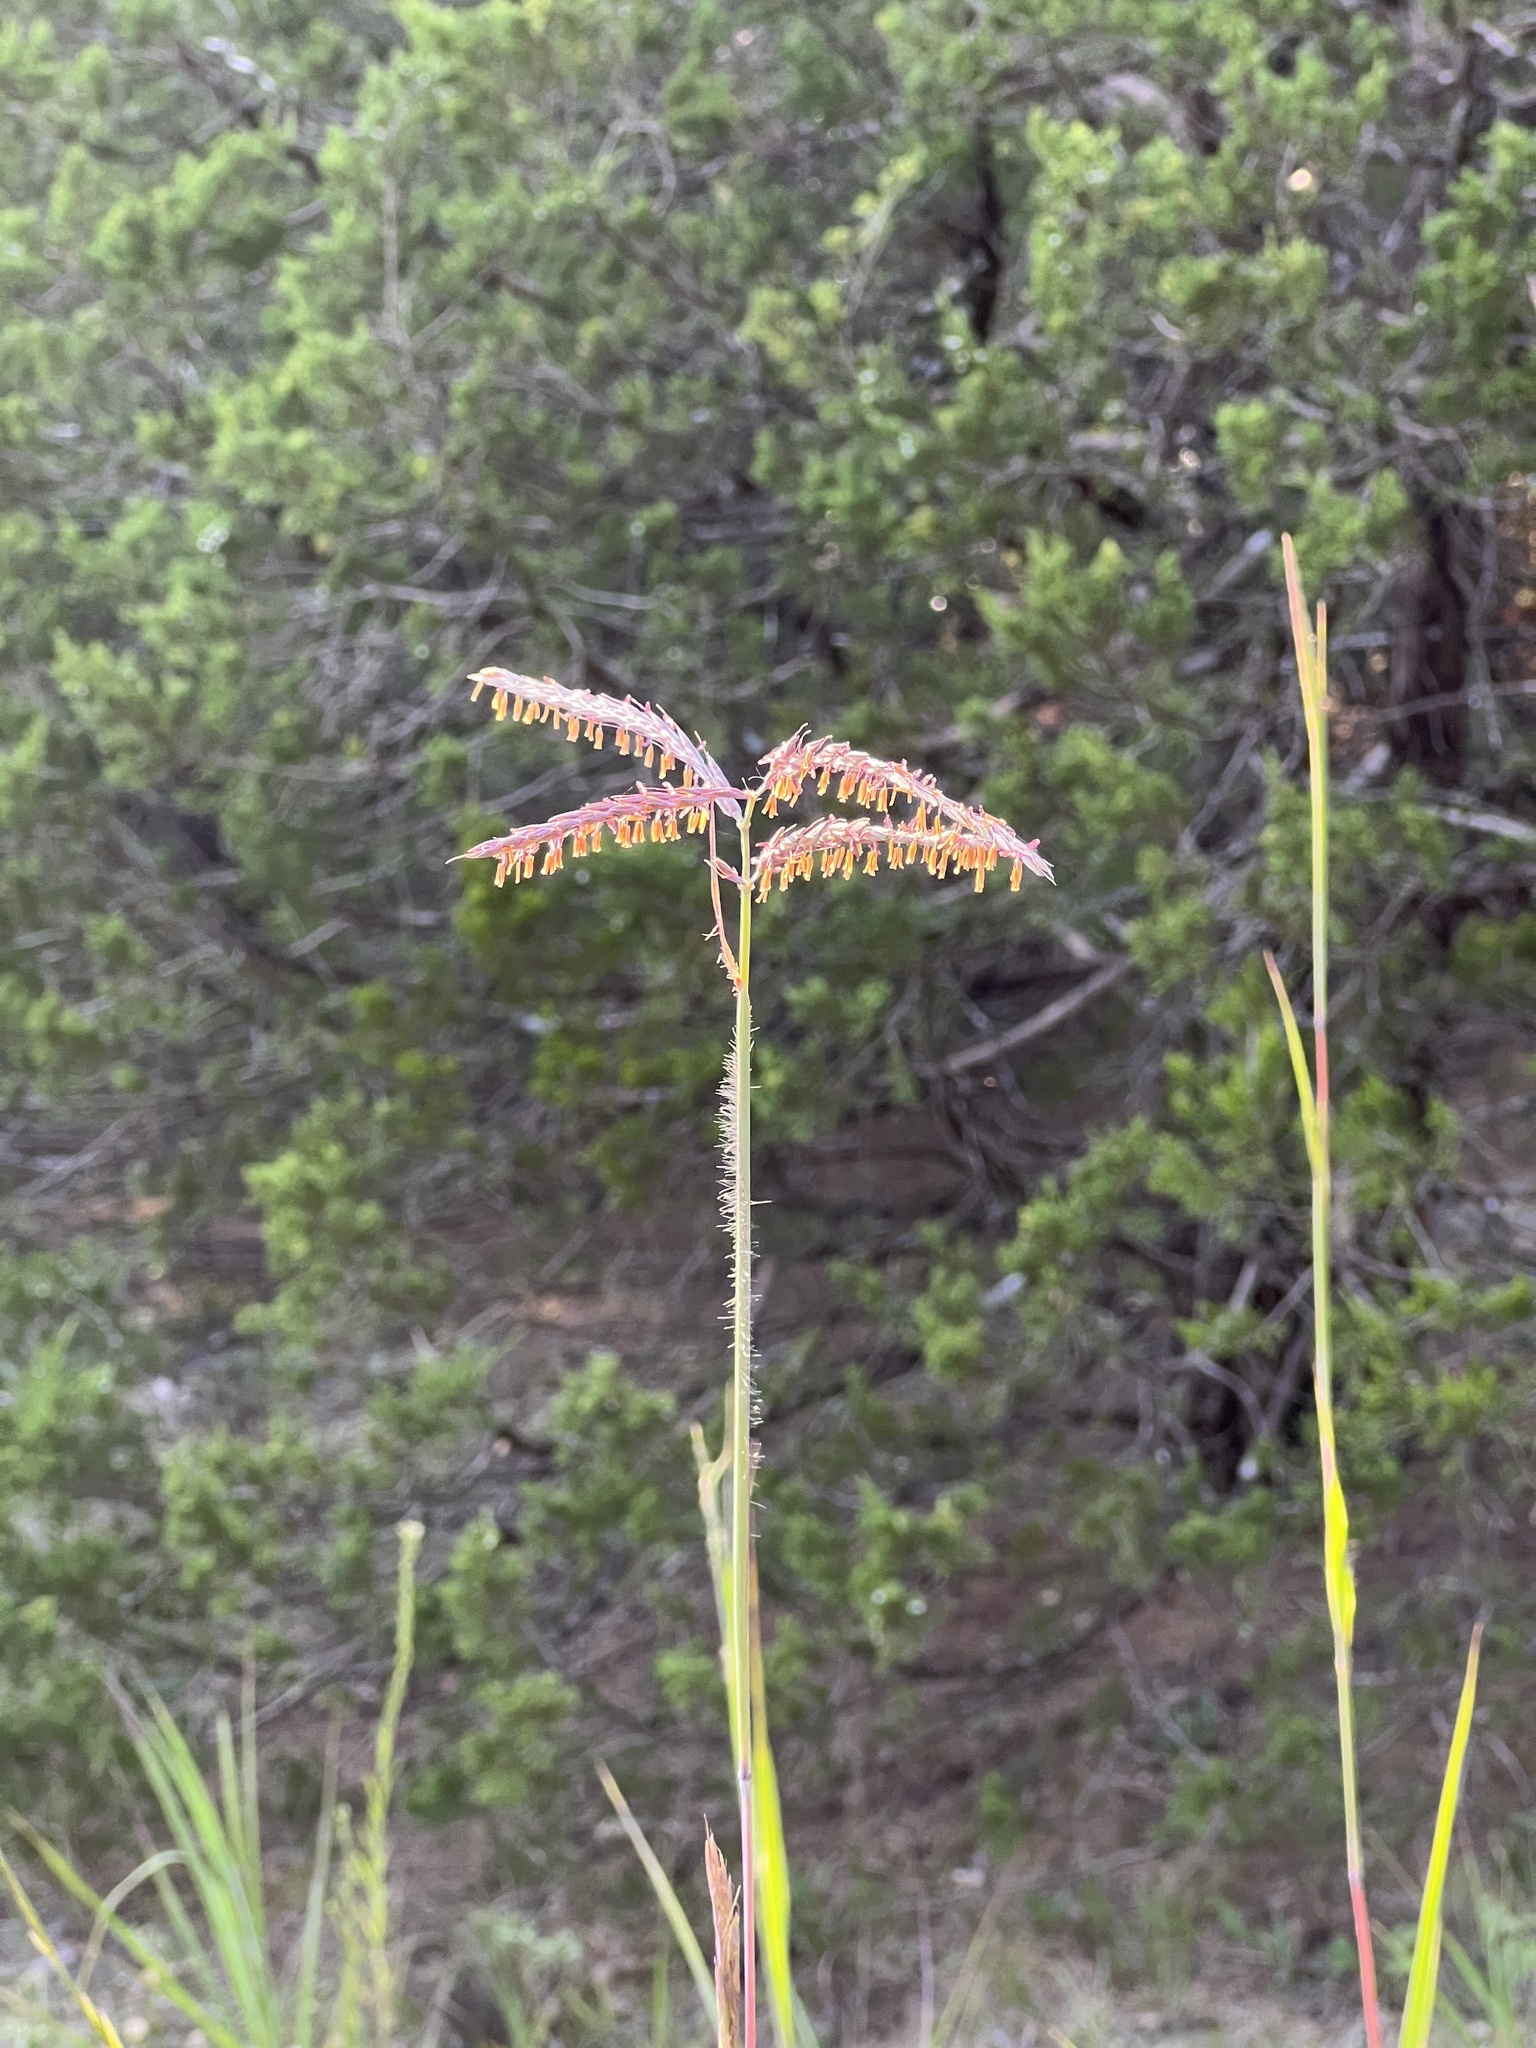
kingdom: Plantae
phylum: Tracheophyta
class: Liliopsida
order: Poales
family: Poaceae
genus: Andropogon
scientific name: Andropogon gerardi
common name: Big bluestem
